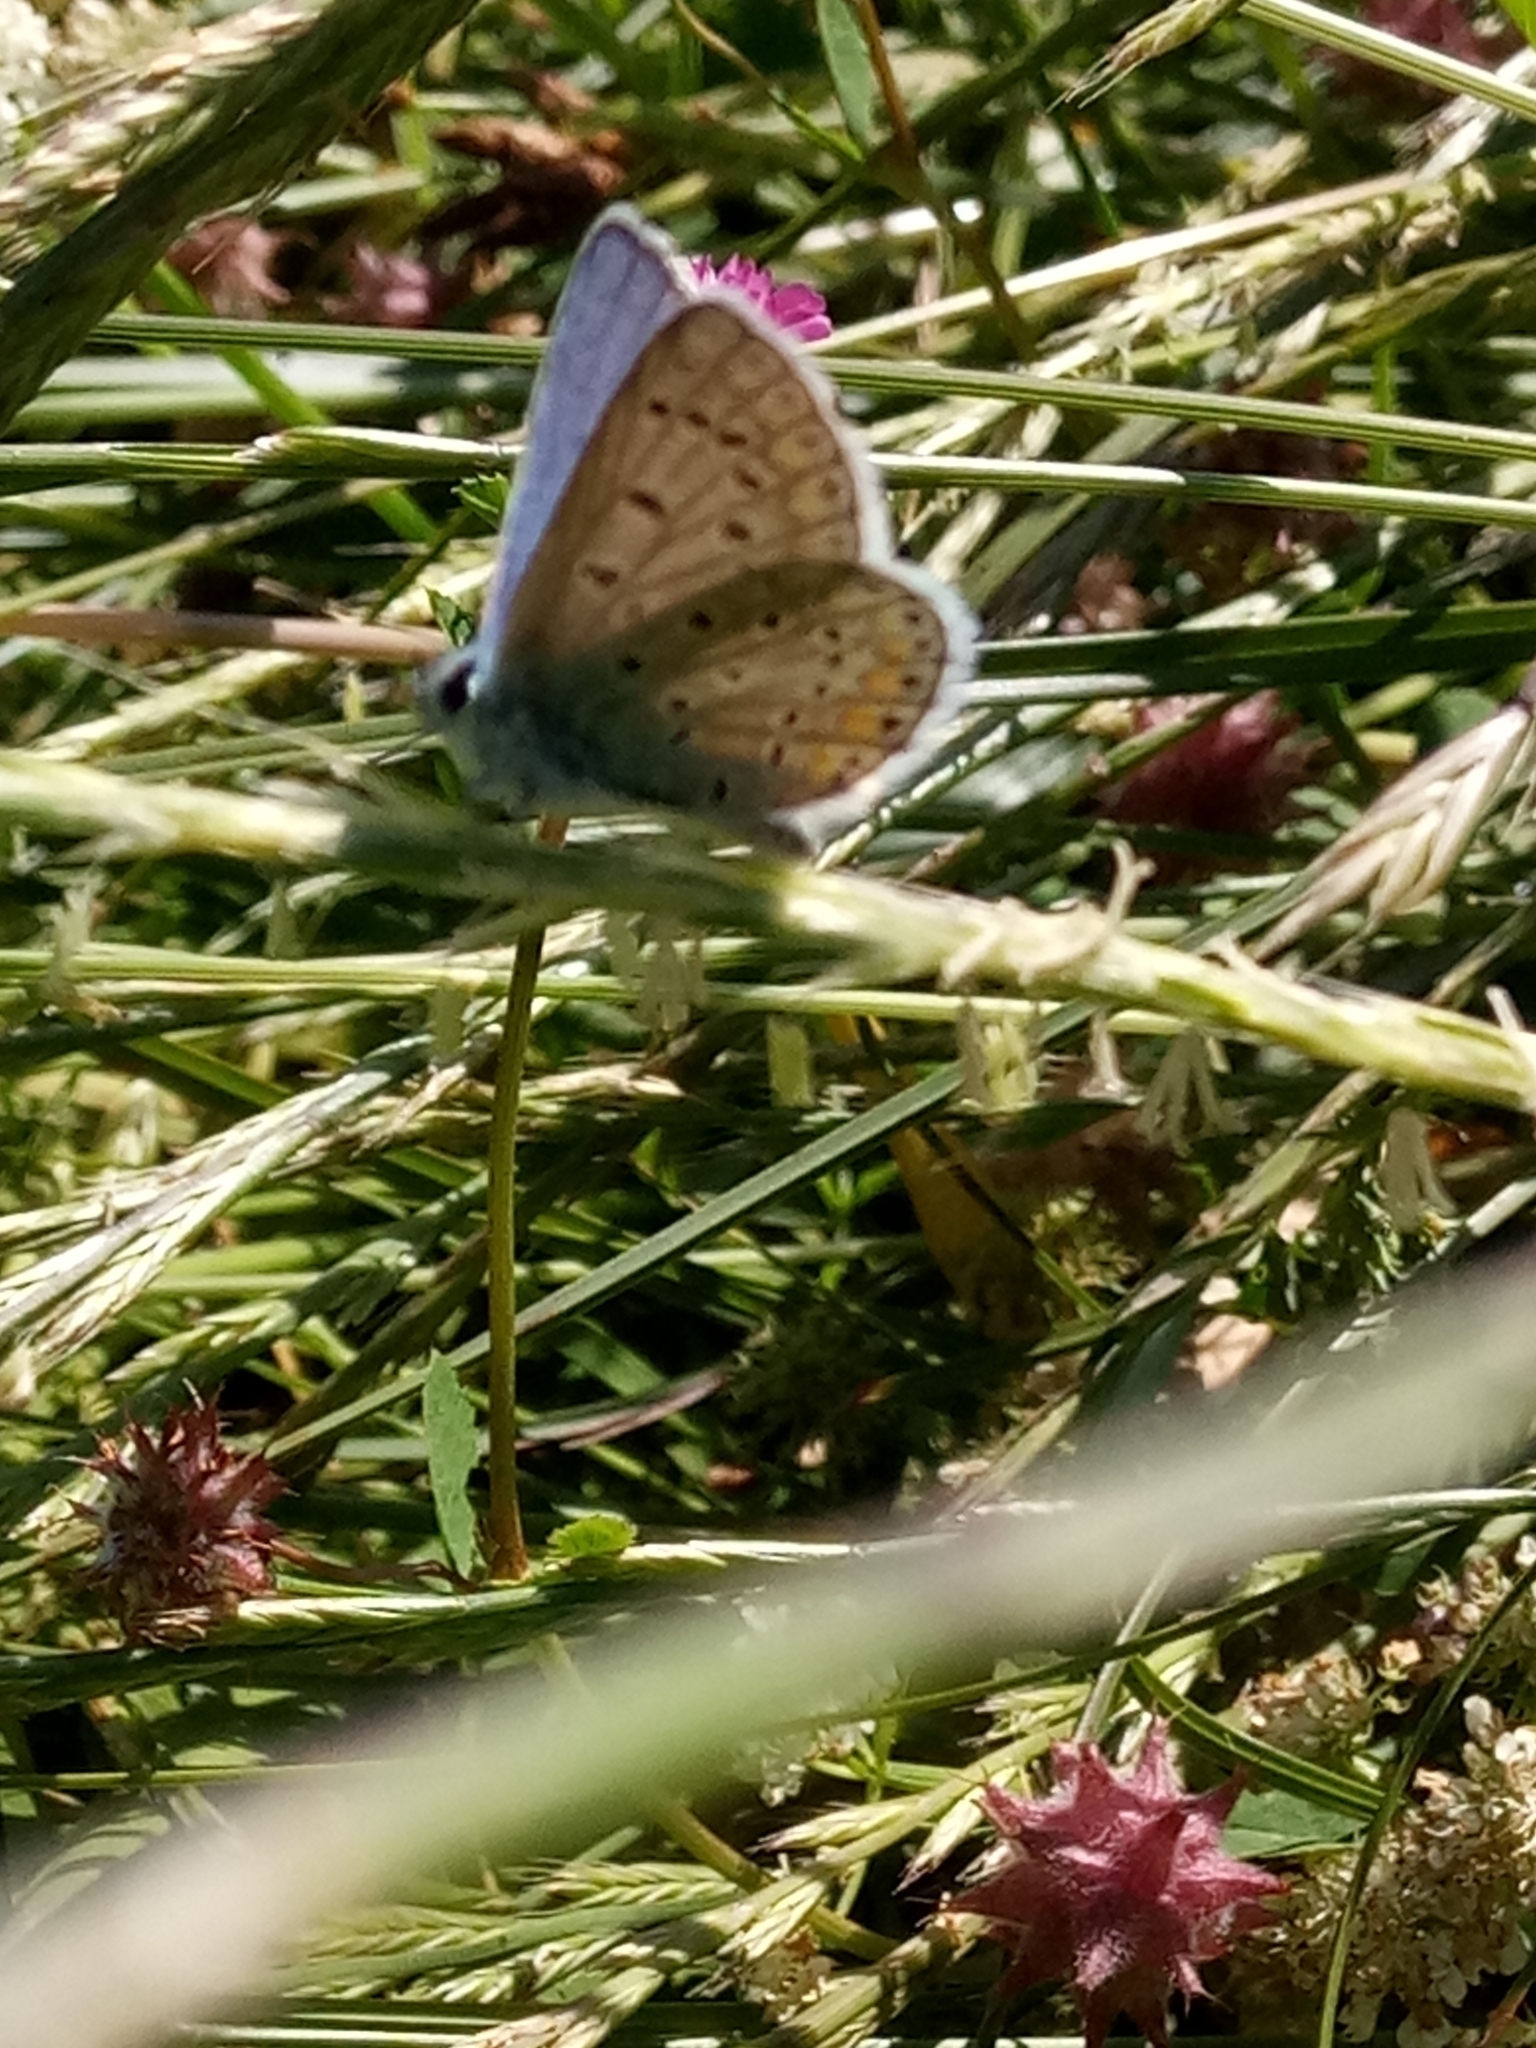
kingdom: Animalia
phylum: Arthropoda
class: Insecta
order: Lepidoptera
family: Lycaenidae
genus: Polyommatus
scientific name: Polyommatus celina
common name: Austaut's blue
